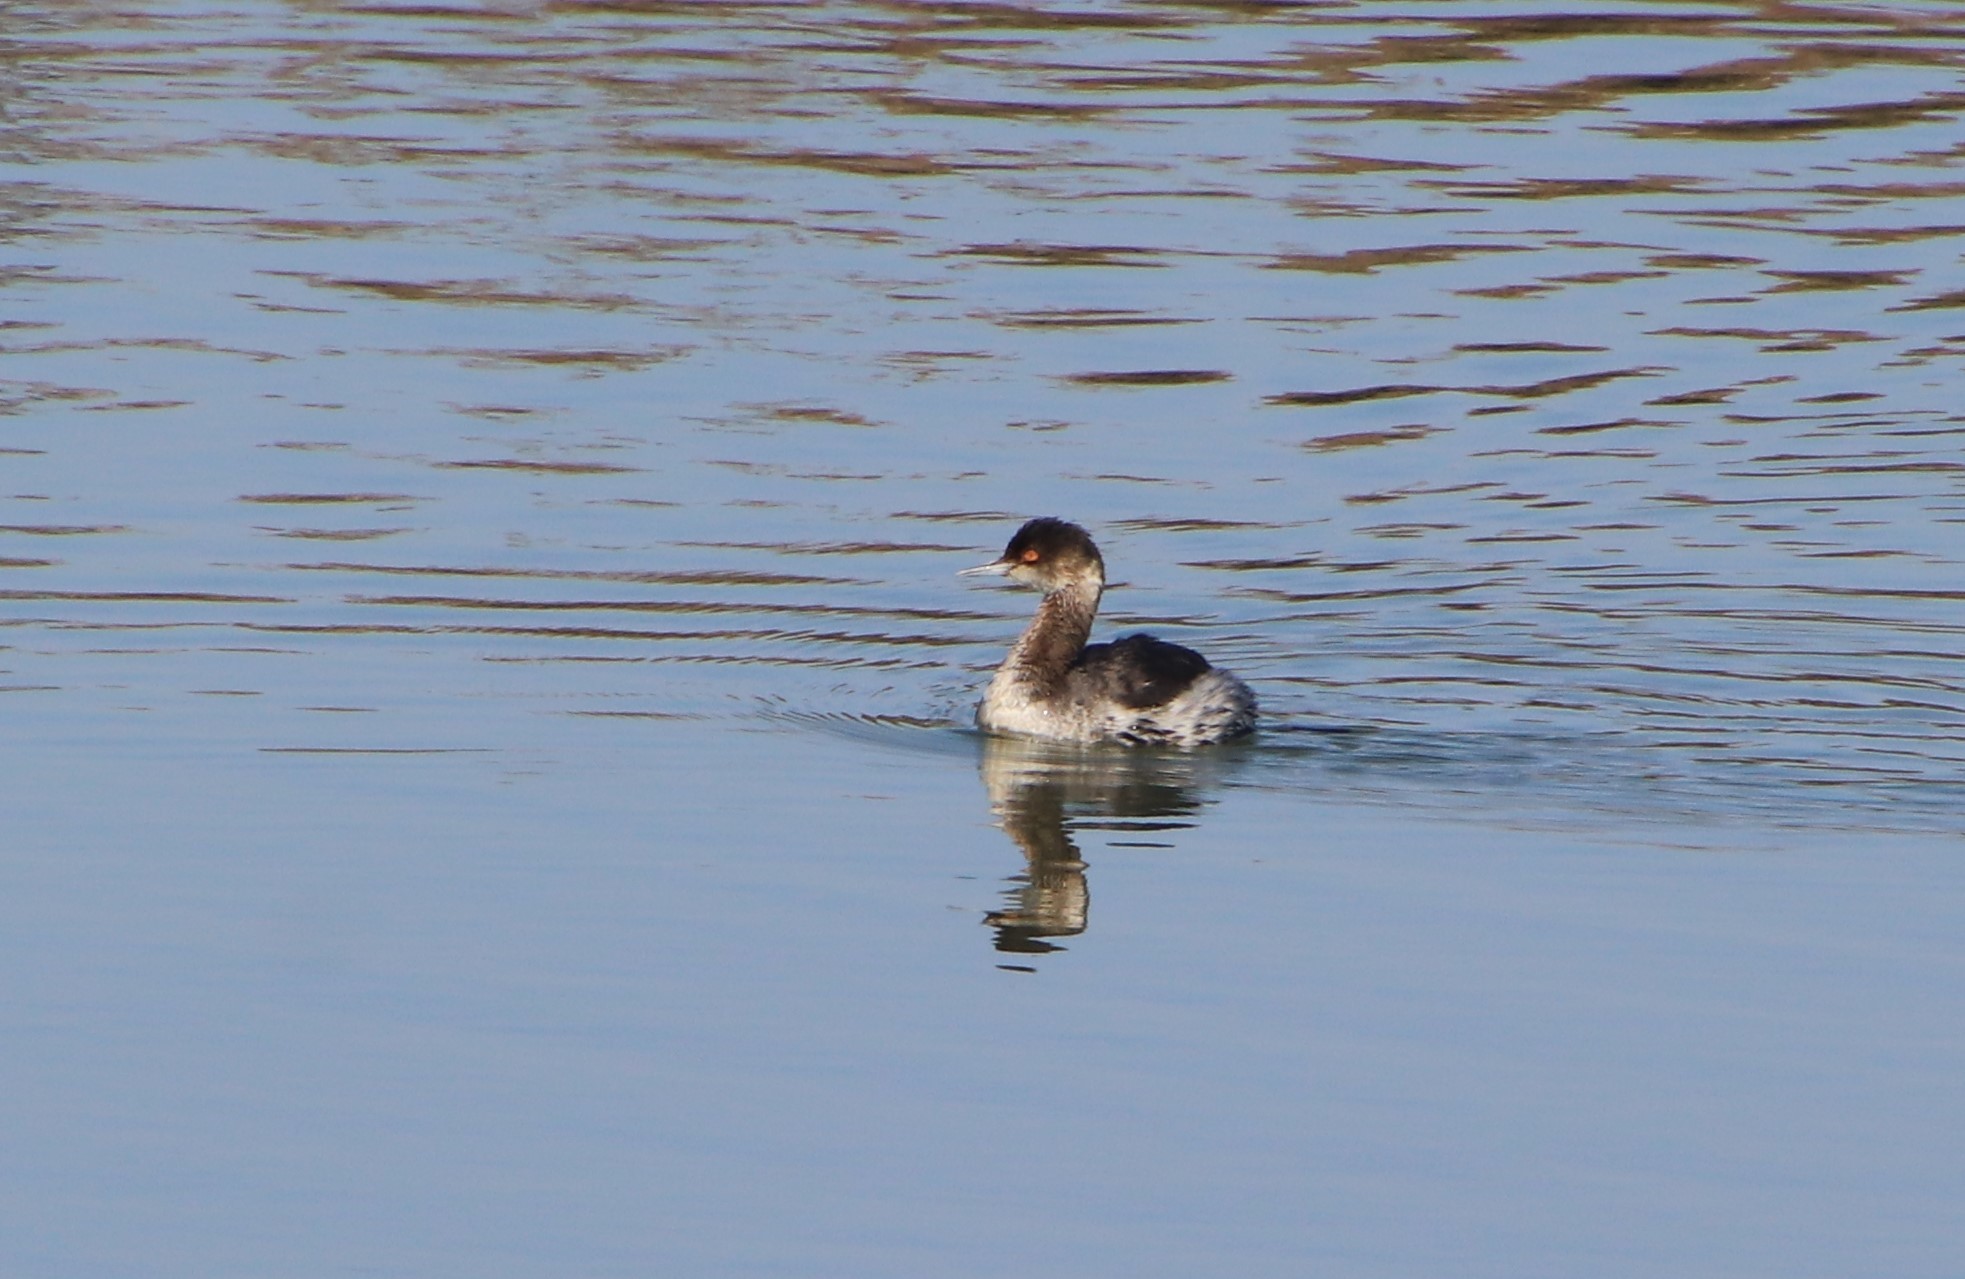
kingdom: Animalia
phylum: Chordata
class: Aves
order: Podicipediformes
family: Podicipedidae
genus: Podiceps
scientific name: Podiceps nigricollis
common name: Black-necked grebe
